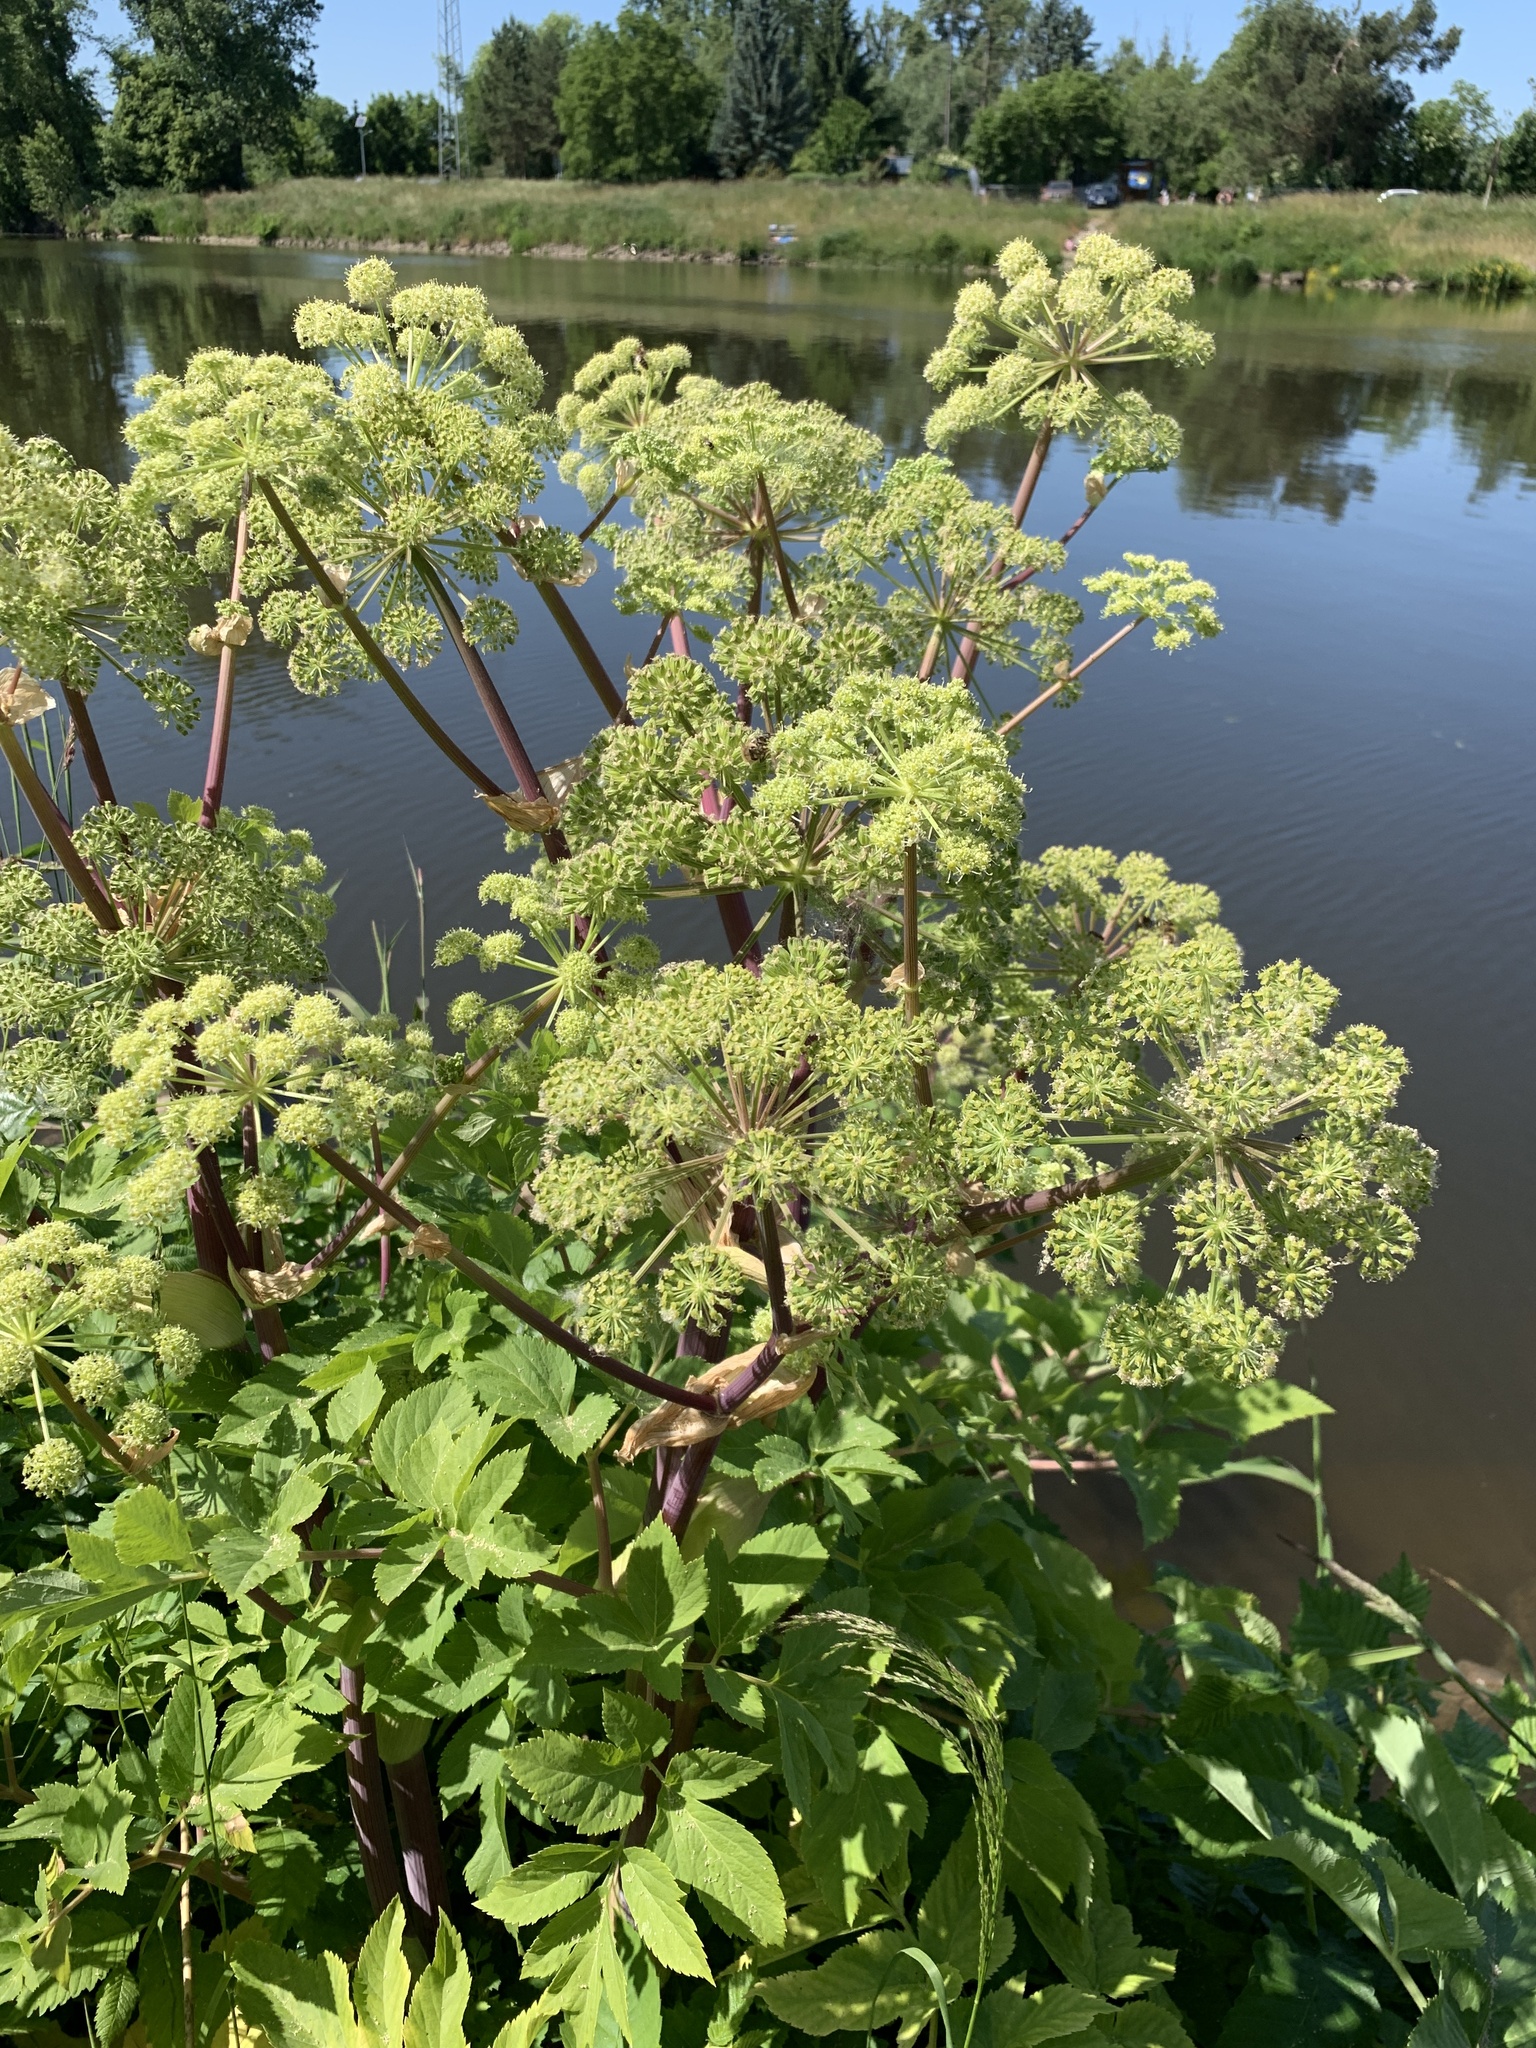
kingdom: Plantae
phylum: Tracheophyta
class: Magnoliopsida
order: Apiales
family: Apiaceae
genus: Angelica
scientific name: Angelica archangelica
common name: Garden angelica
